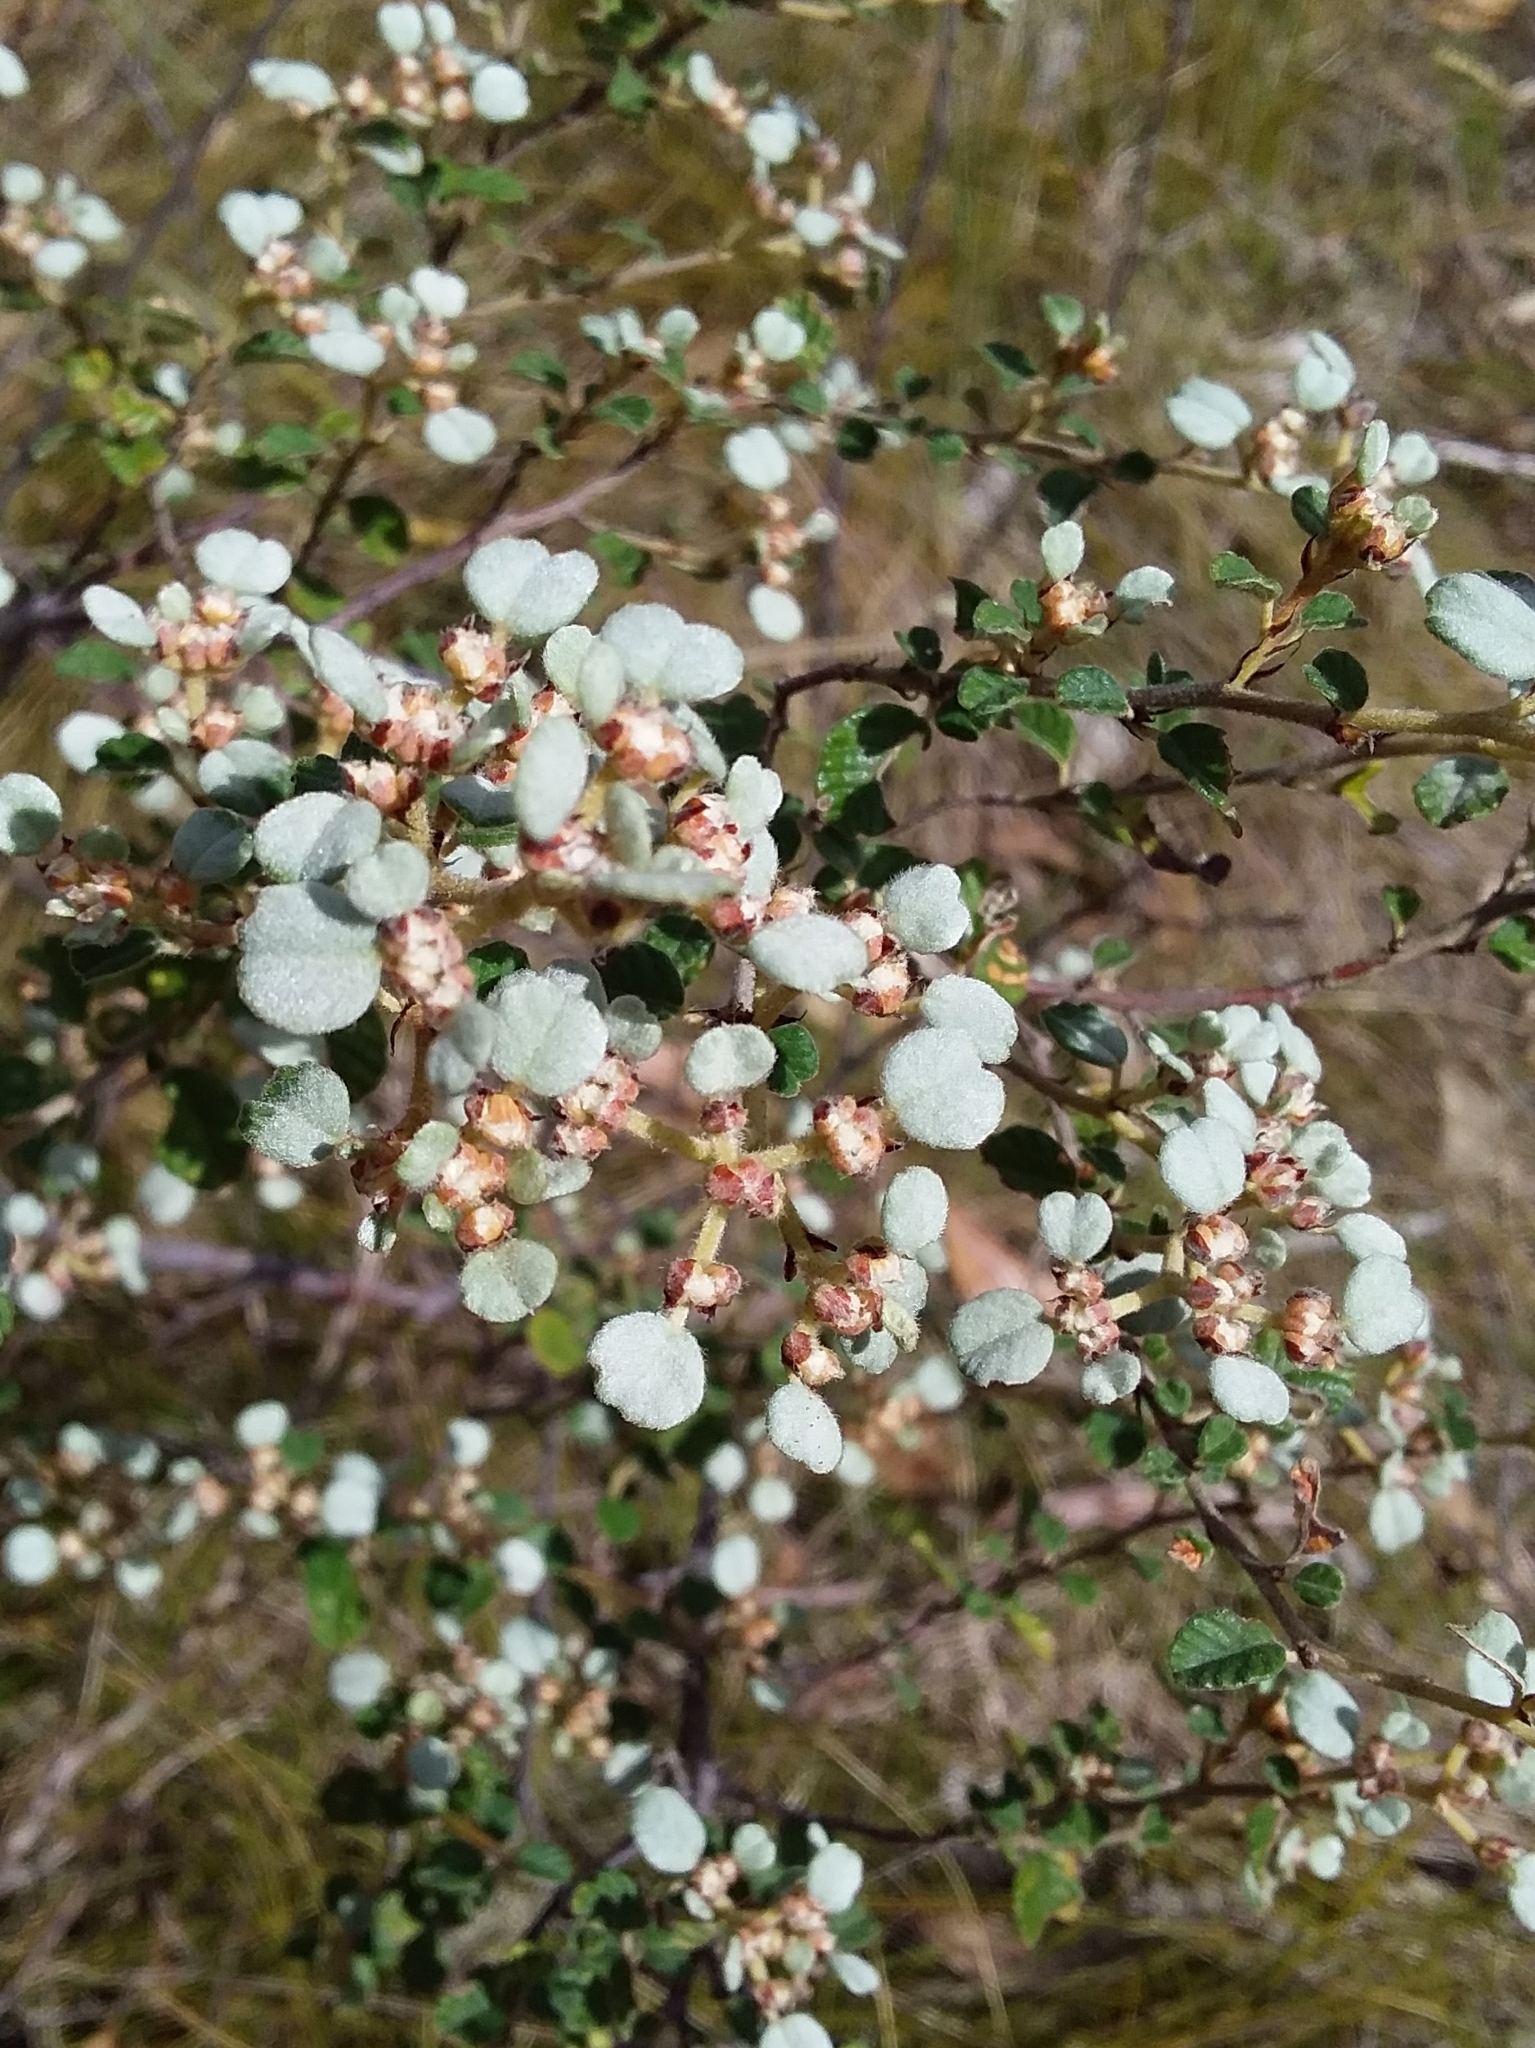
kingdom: Plantae
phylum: Tracheophyta
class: Magnoliopsida
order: Rosales
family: Rhamnaceae
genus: Spyridium
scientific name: Spyridium parvifolium
